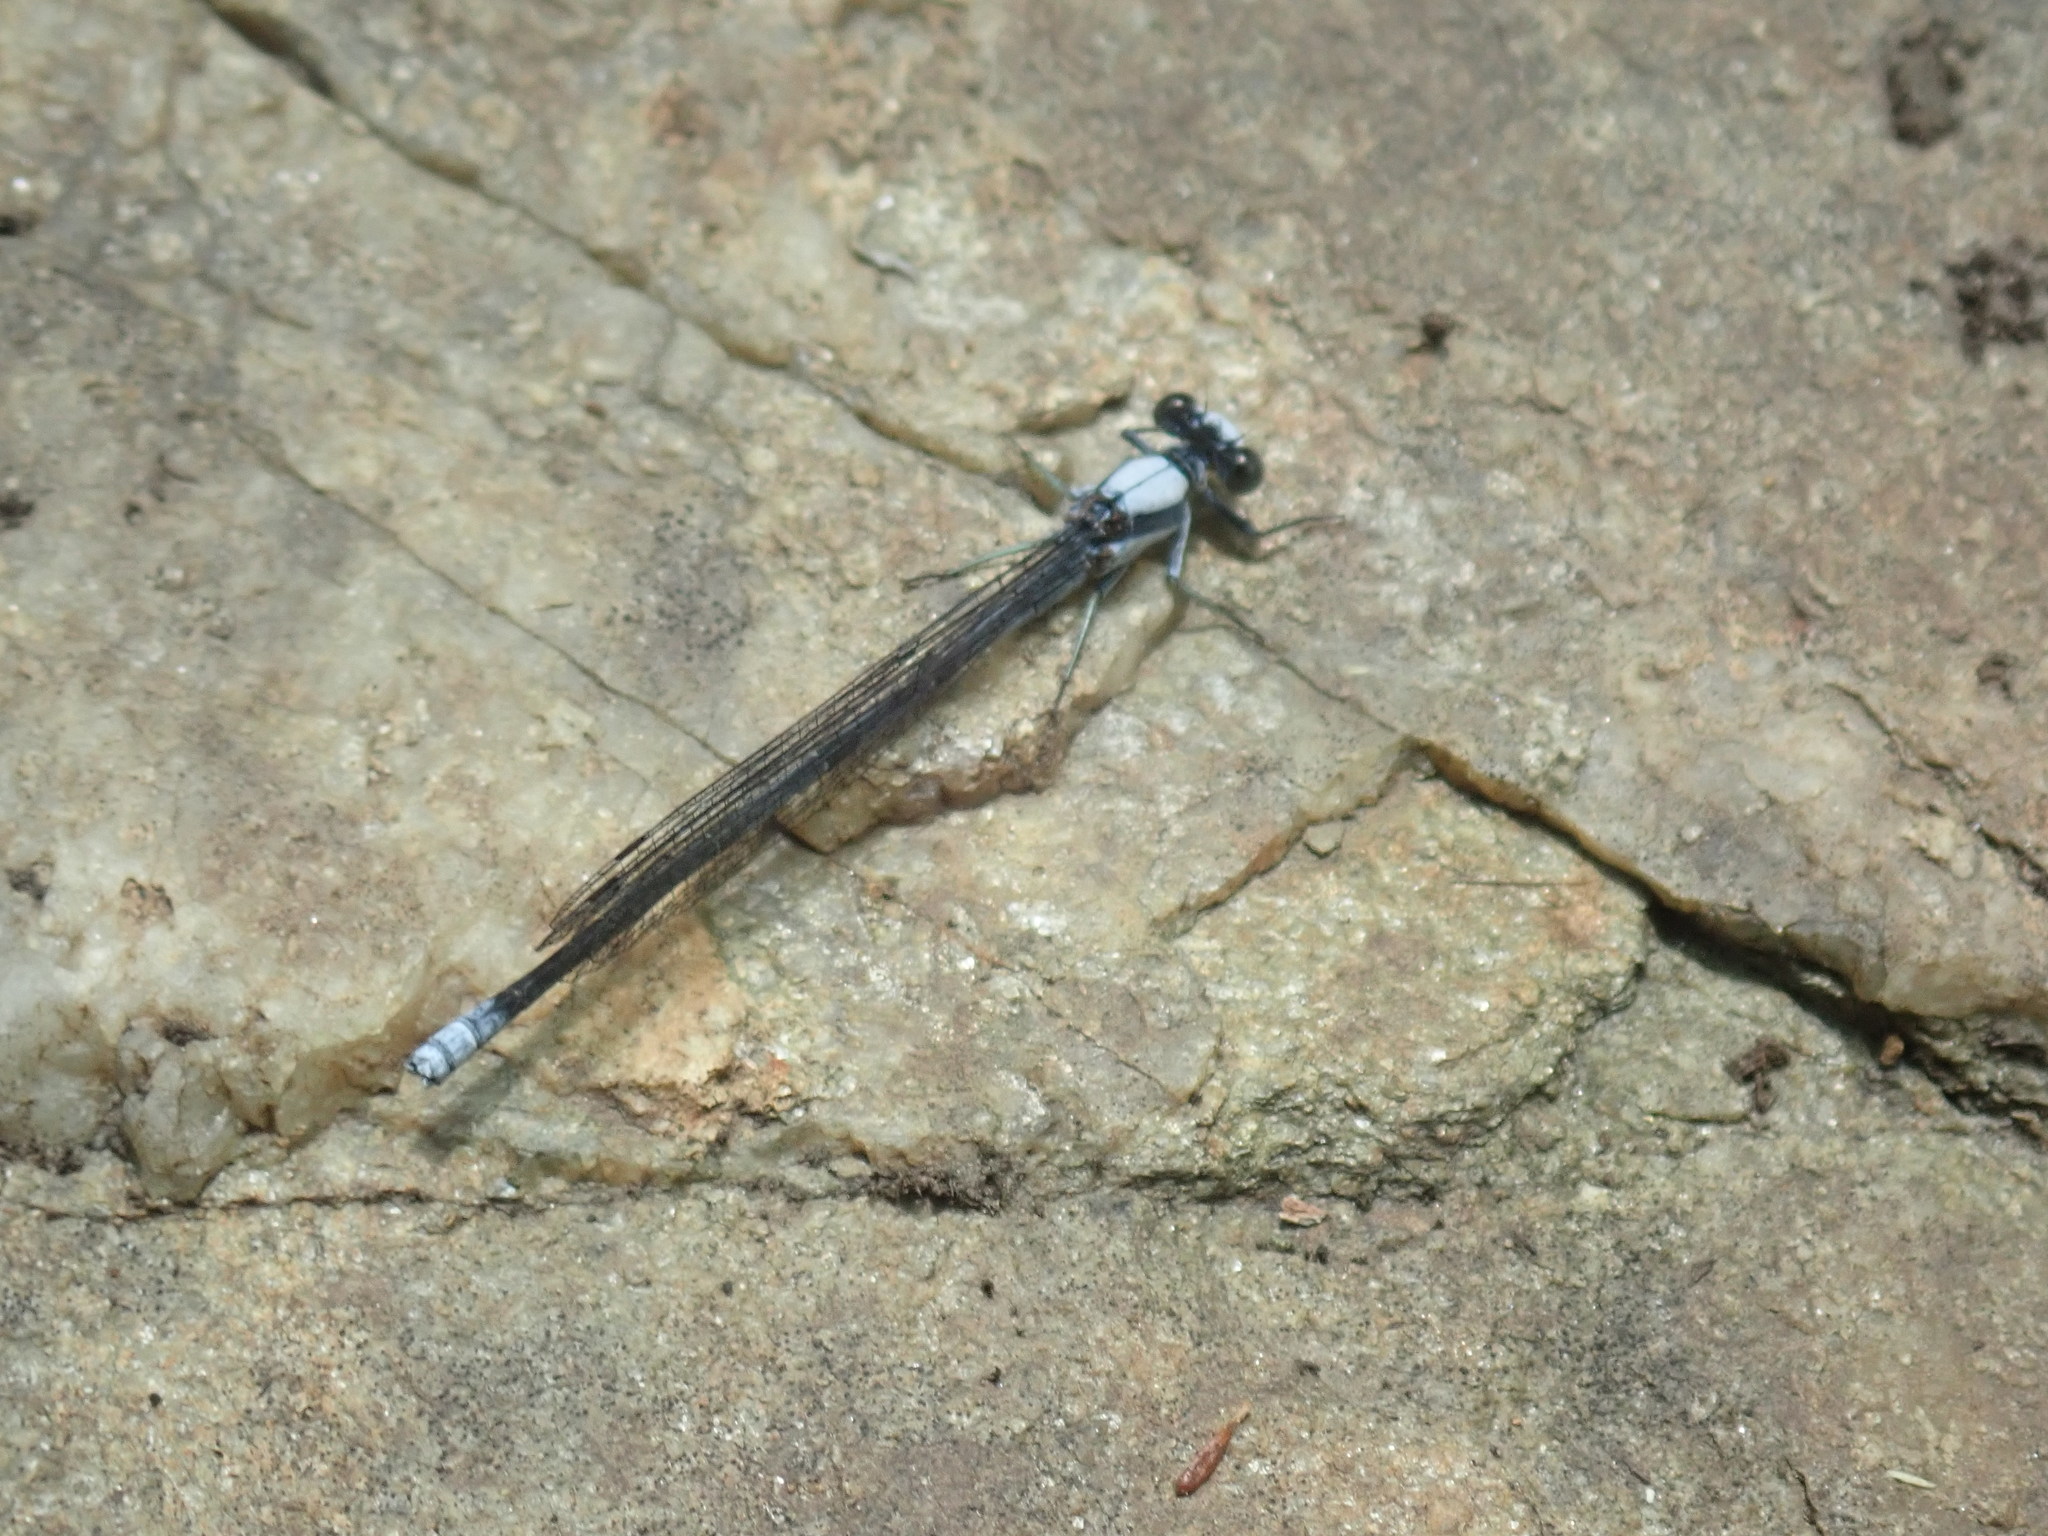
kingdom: Animalia
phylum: Arthropoda
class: Insecta
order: Odonata
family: Coenagrionidae
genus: Argia
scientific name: Argia moesta
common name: Powdered dancer
